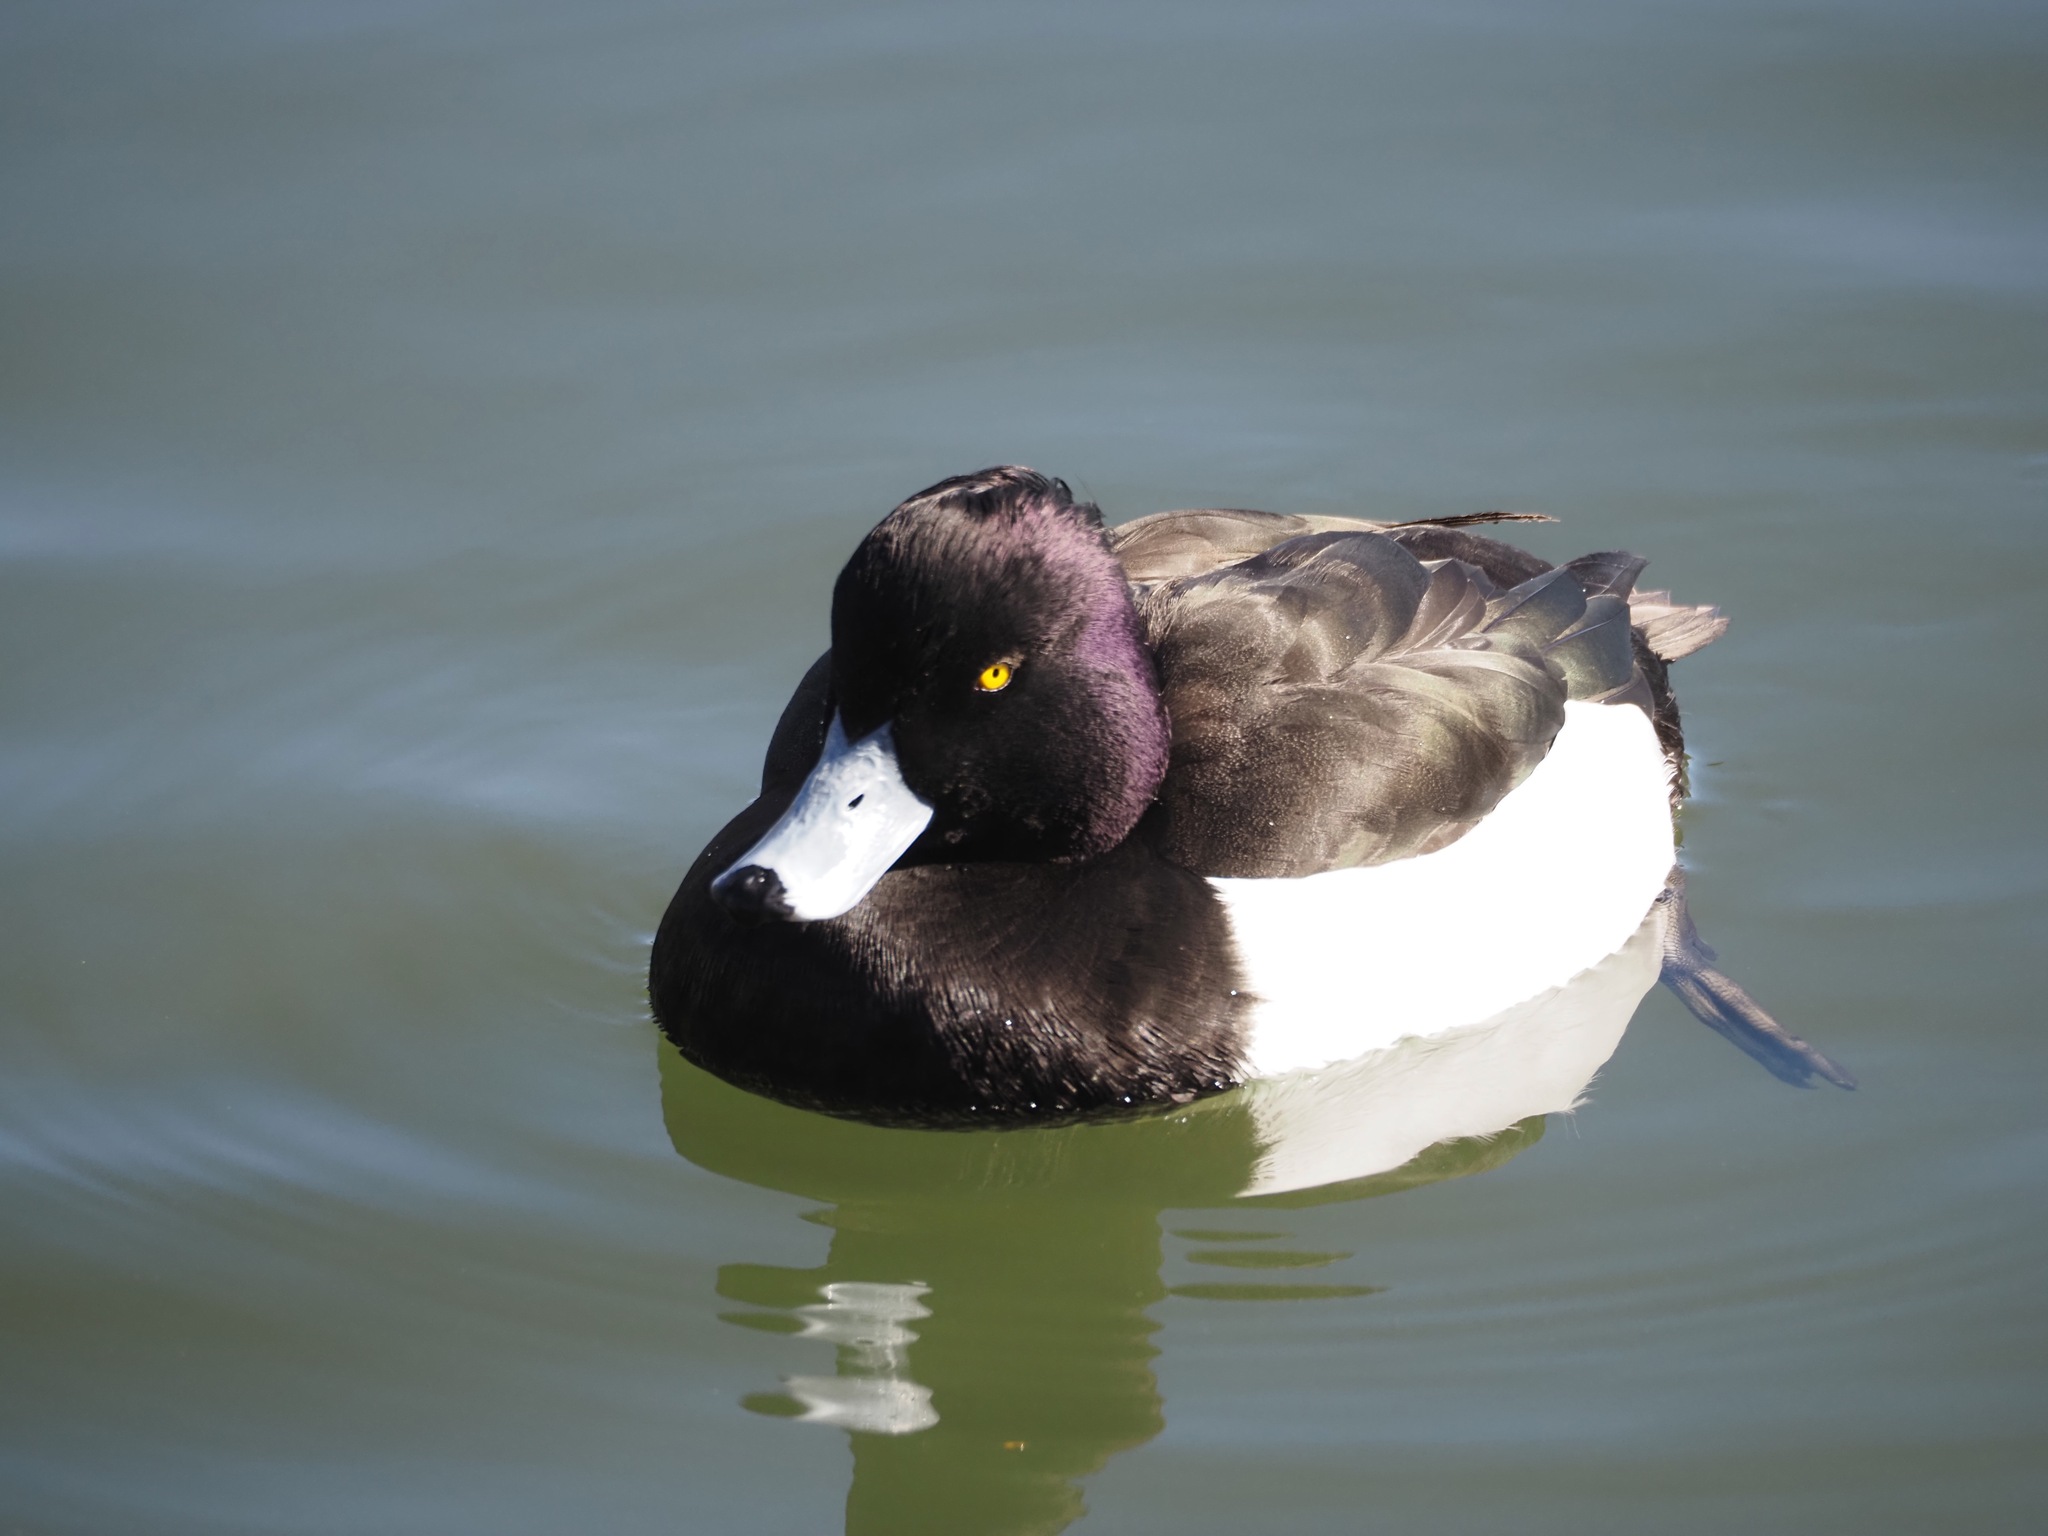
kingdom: Animalia
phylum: Chordata
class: Aves
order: Anseriformes
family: Anatidae
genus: Aythya
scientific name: Aythya fuligula
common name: Tufted duck
